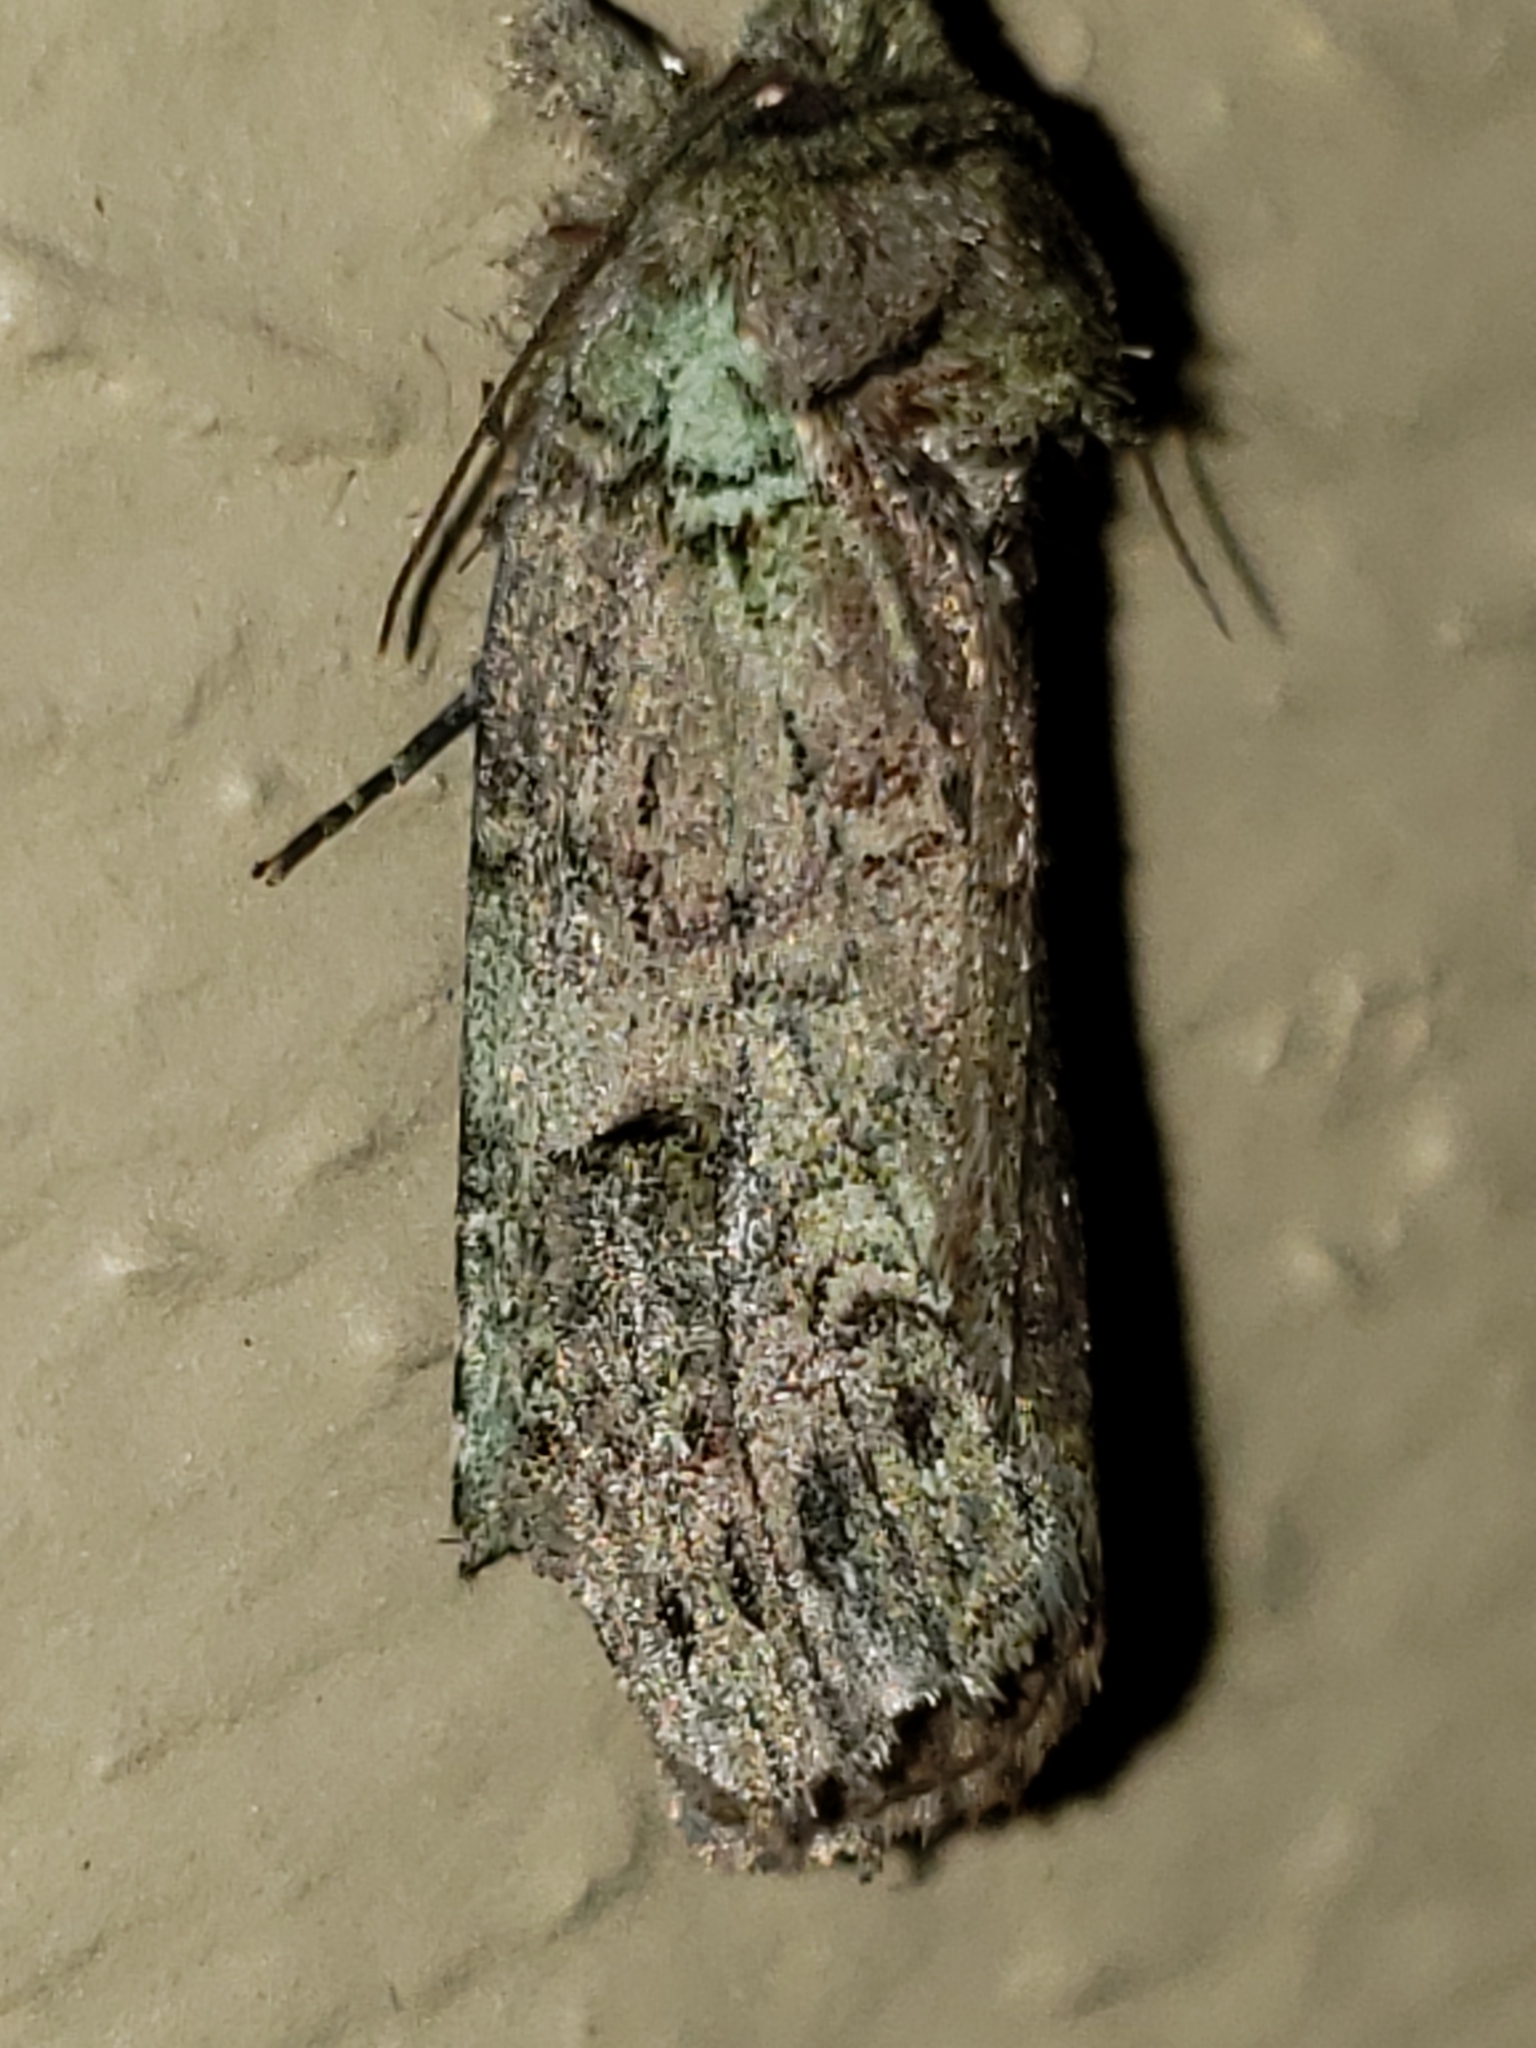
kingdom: Animalia
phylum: Arthropoda
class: Insecta
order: Lepidoptera
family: Notodontidae
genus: Schizura
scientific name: Schizura
